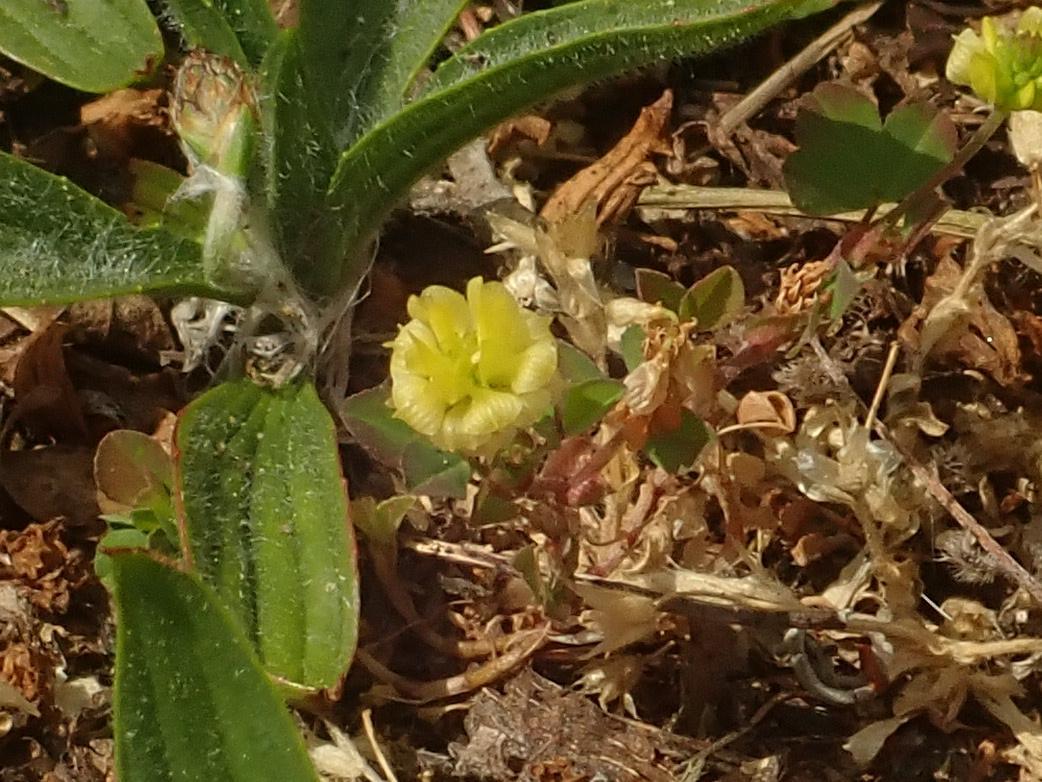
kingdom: Plantae
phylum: Tracheophyta
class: Magnoliopsida
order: Fabales
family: Fabaceae
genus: Trifolium
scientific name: Trifolium campestre
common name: Field clover
